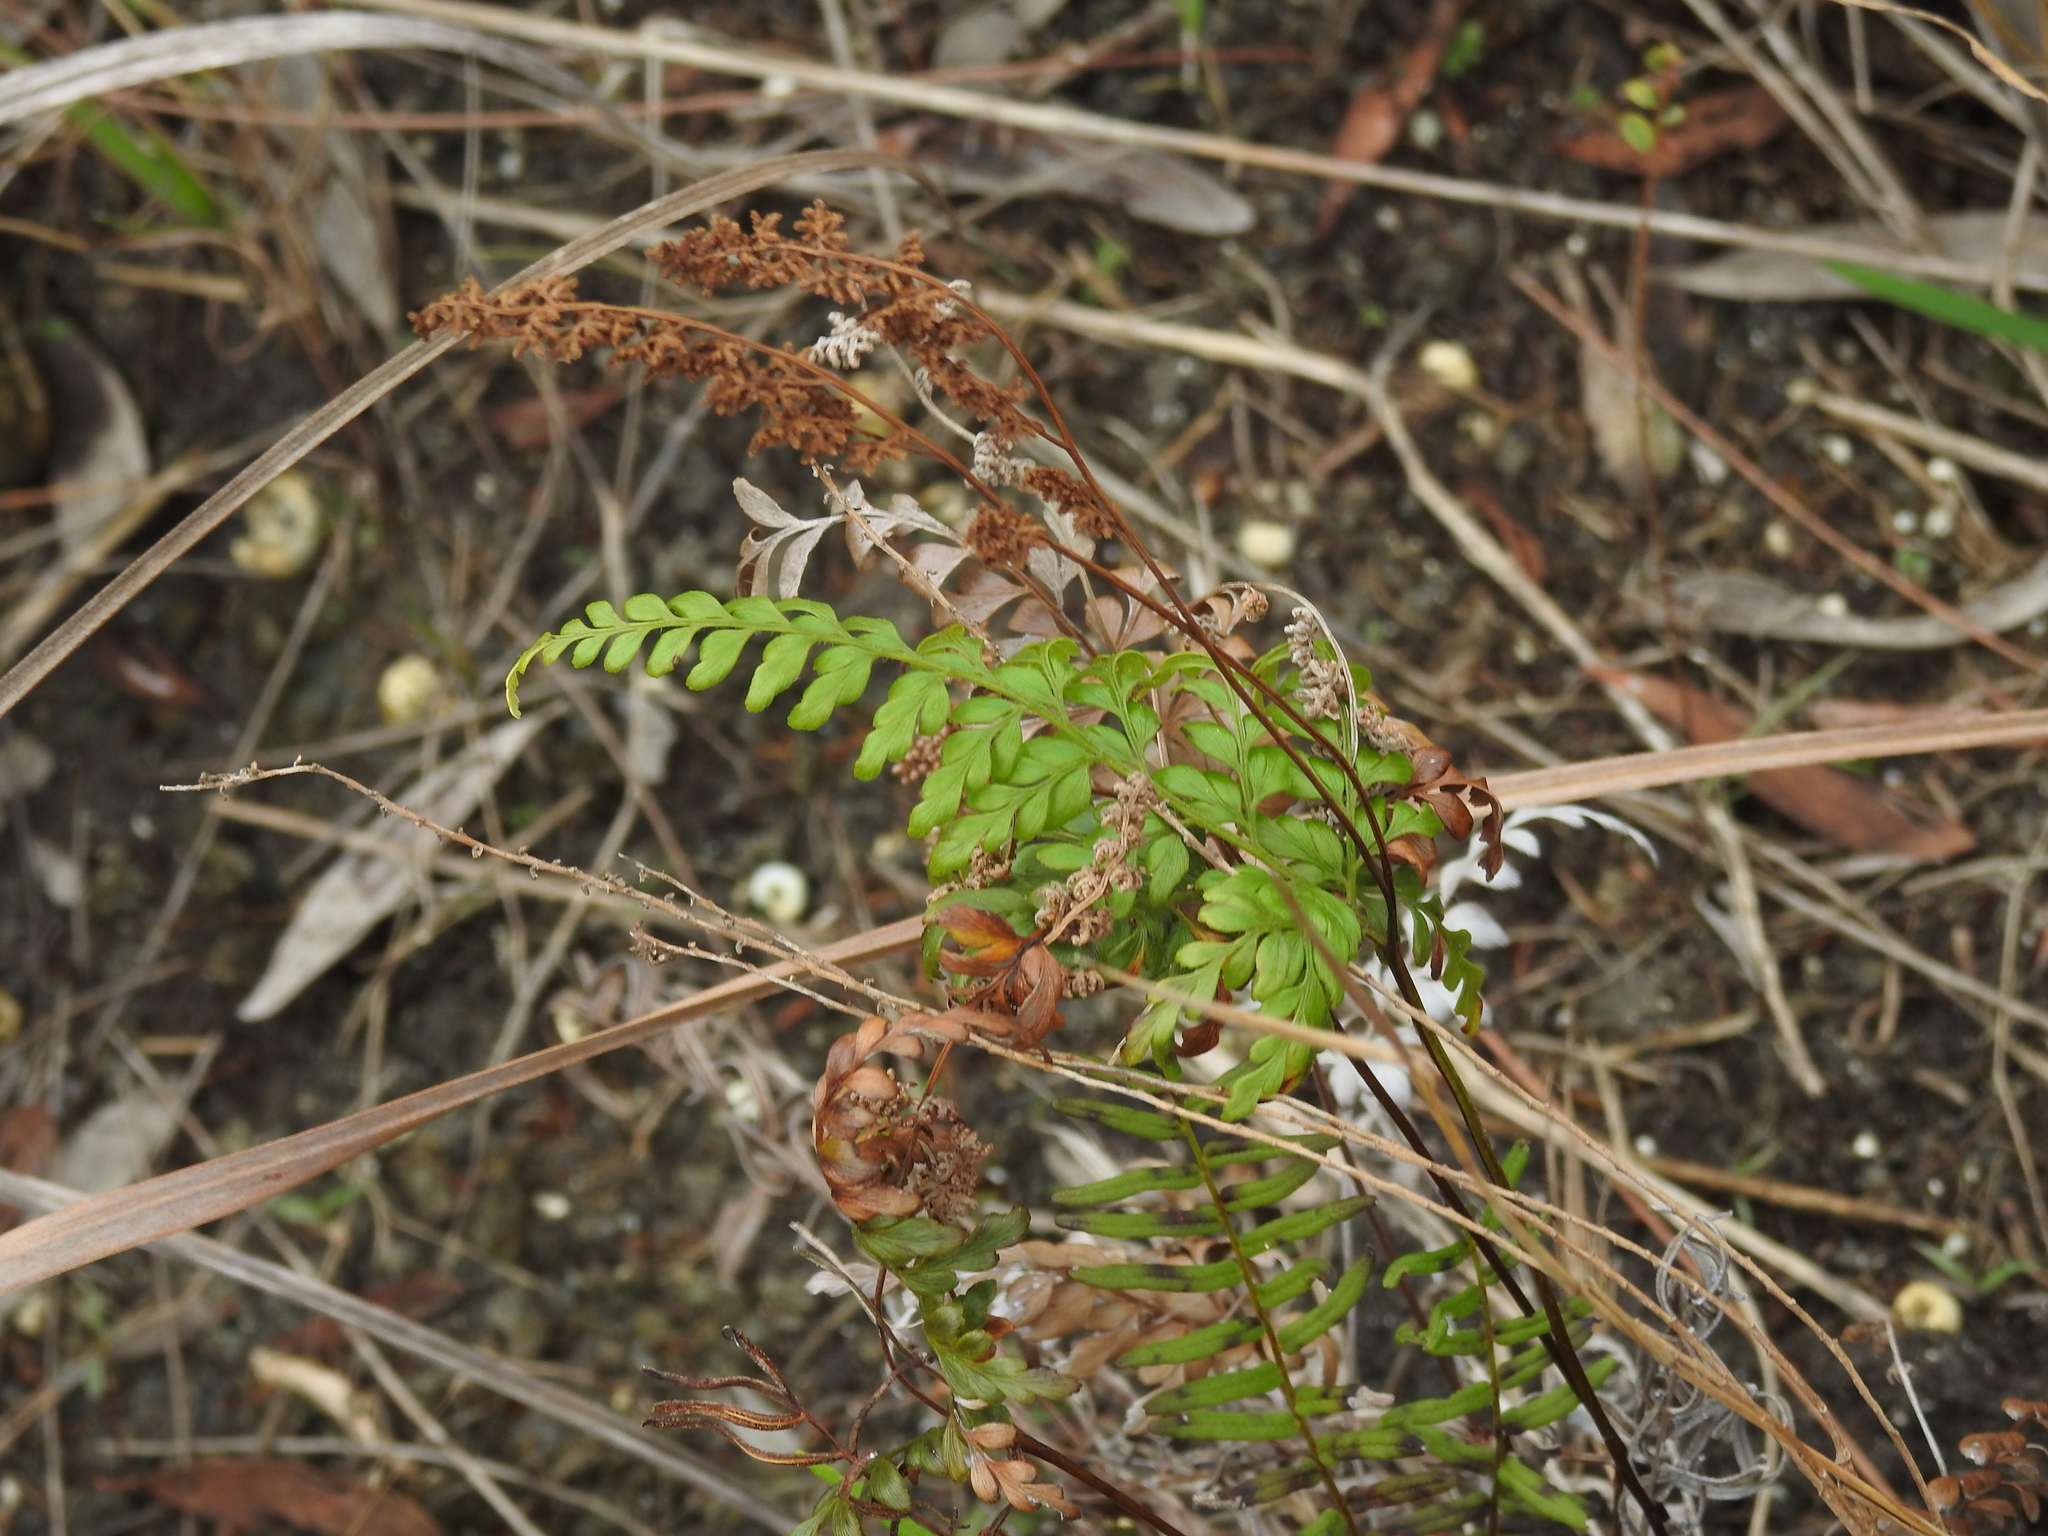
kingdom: Plantae
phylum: Tracheophyta
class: Polypodiopsida
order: Schizaeales
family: Anemiaceae
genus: Anemia
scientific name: Anemia adiantifolia
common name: Pine fern
